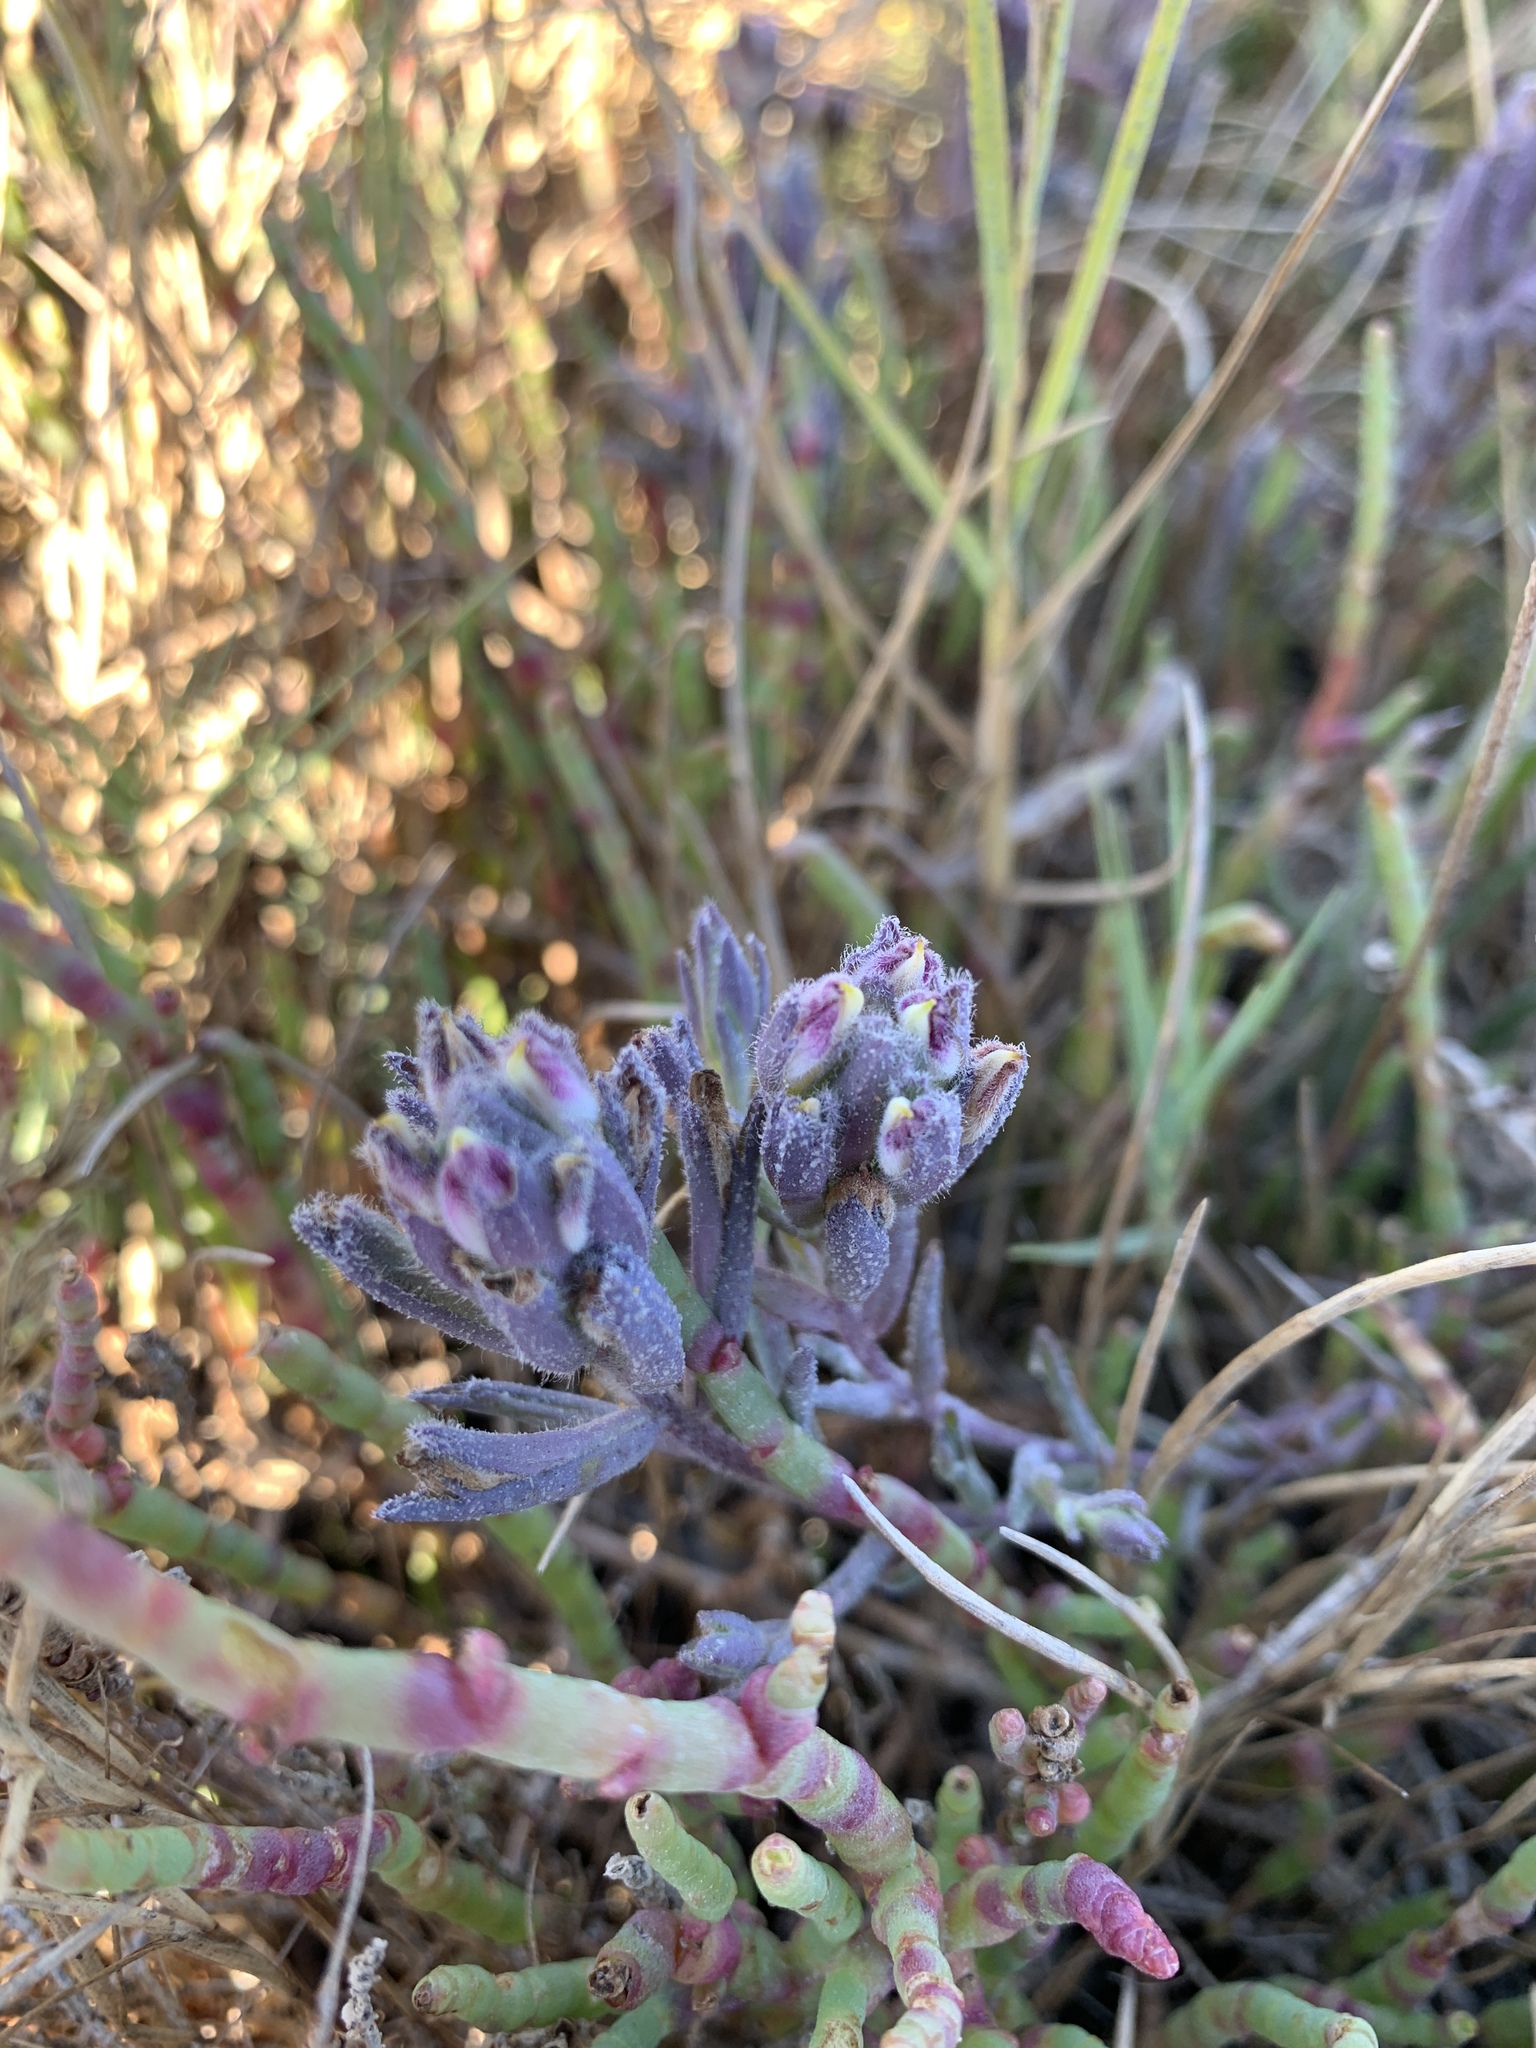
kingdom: Plantae
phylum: Tracheophyta
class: Magnoliopsida
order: Lamiales
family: Orobanchaceae
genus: Chloropyron
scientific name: Chloropyron maritimum
